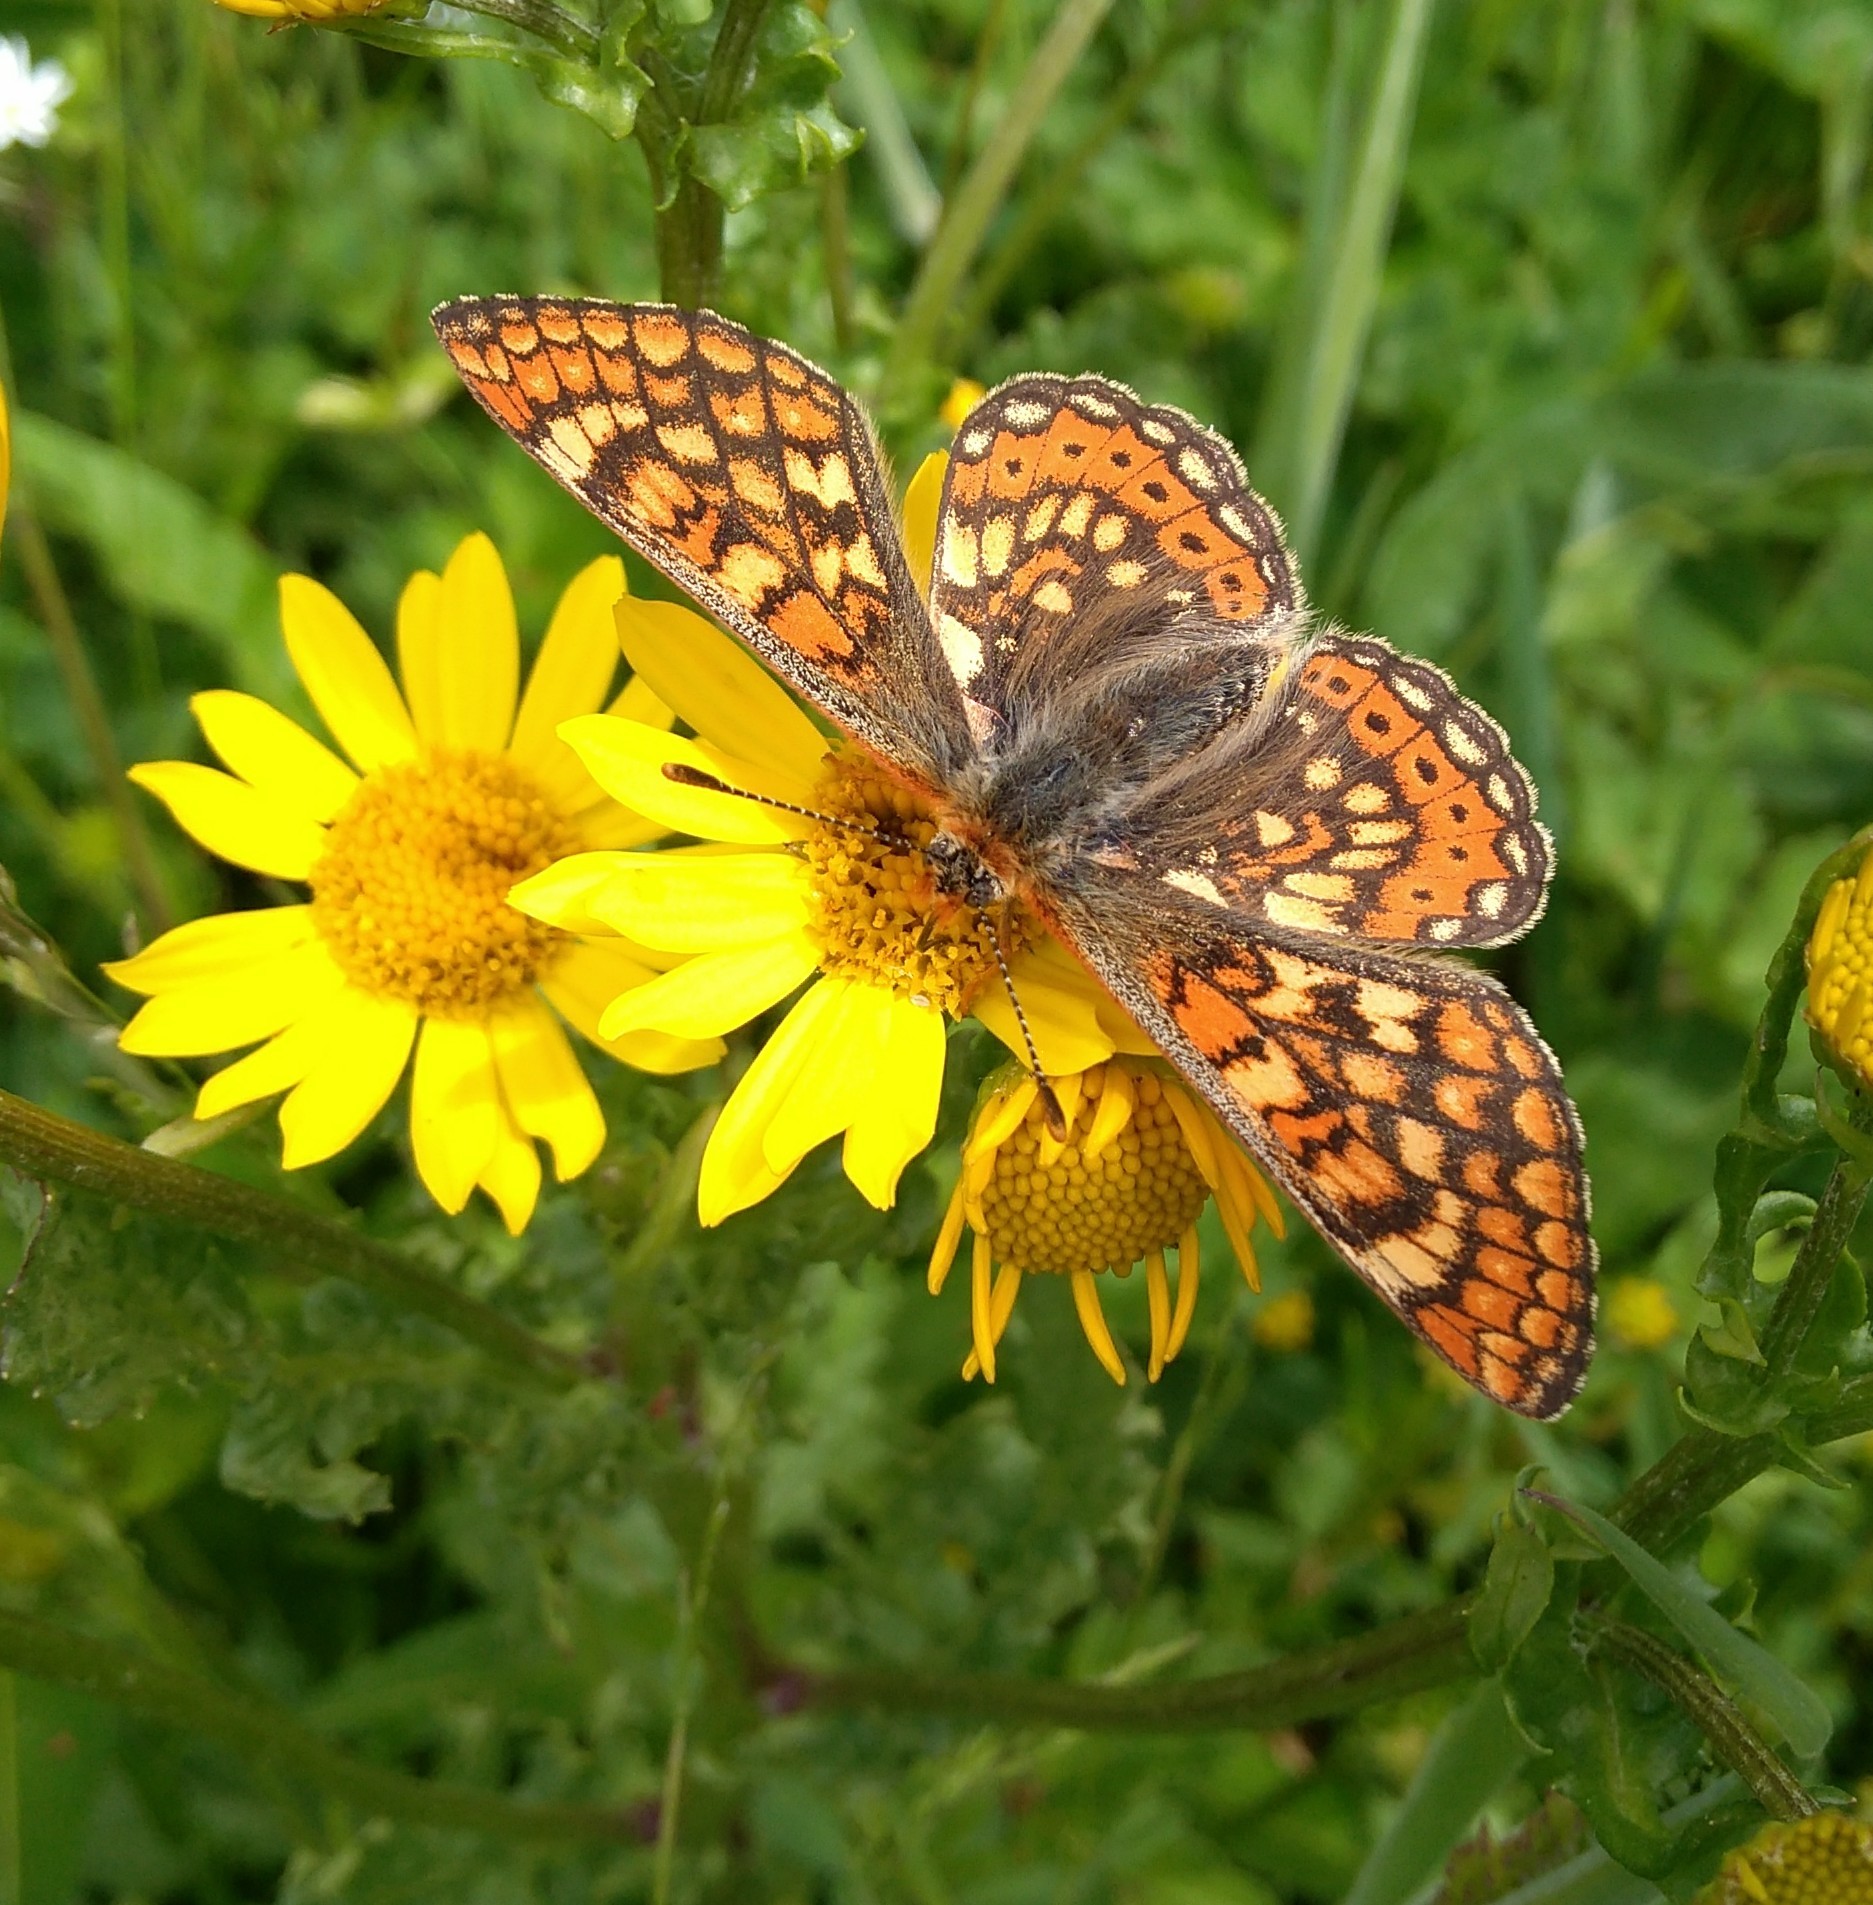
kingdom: Animalia
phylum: Arthropoda
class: Insecta
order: Lepidoptera
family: Nymphalidae
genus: Euphydryas
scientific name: Euphydryas aurinia
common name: Marsh fritillary
